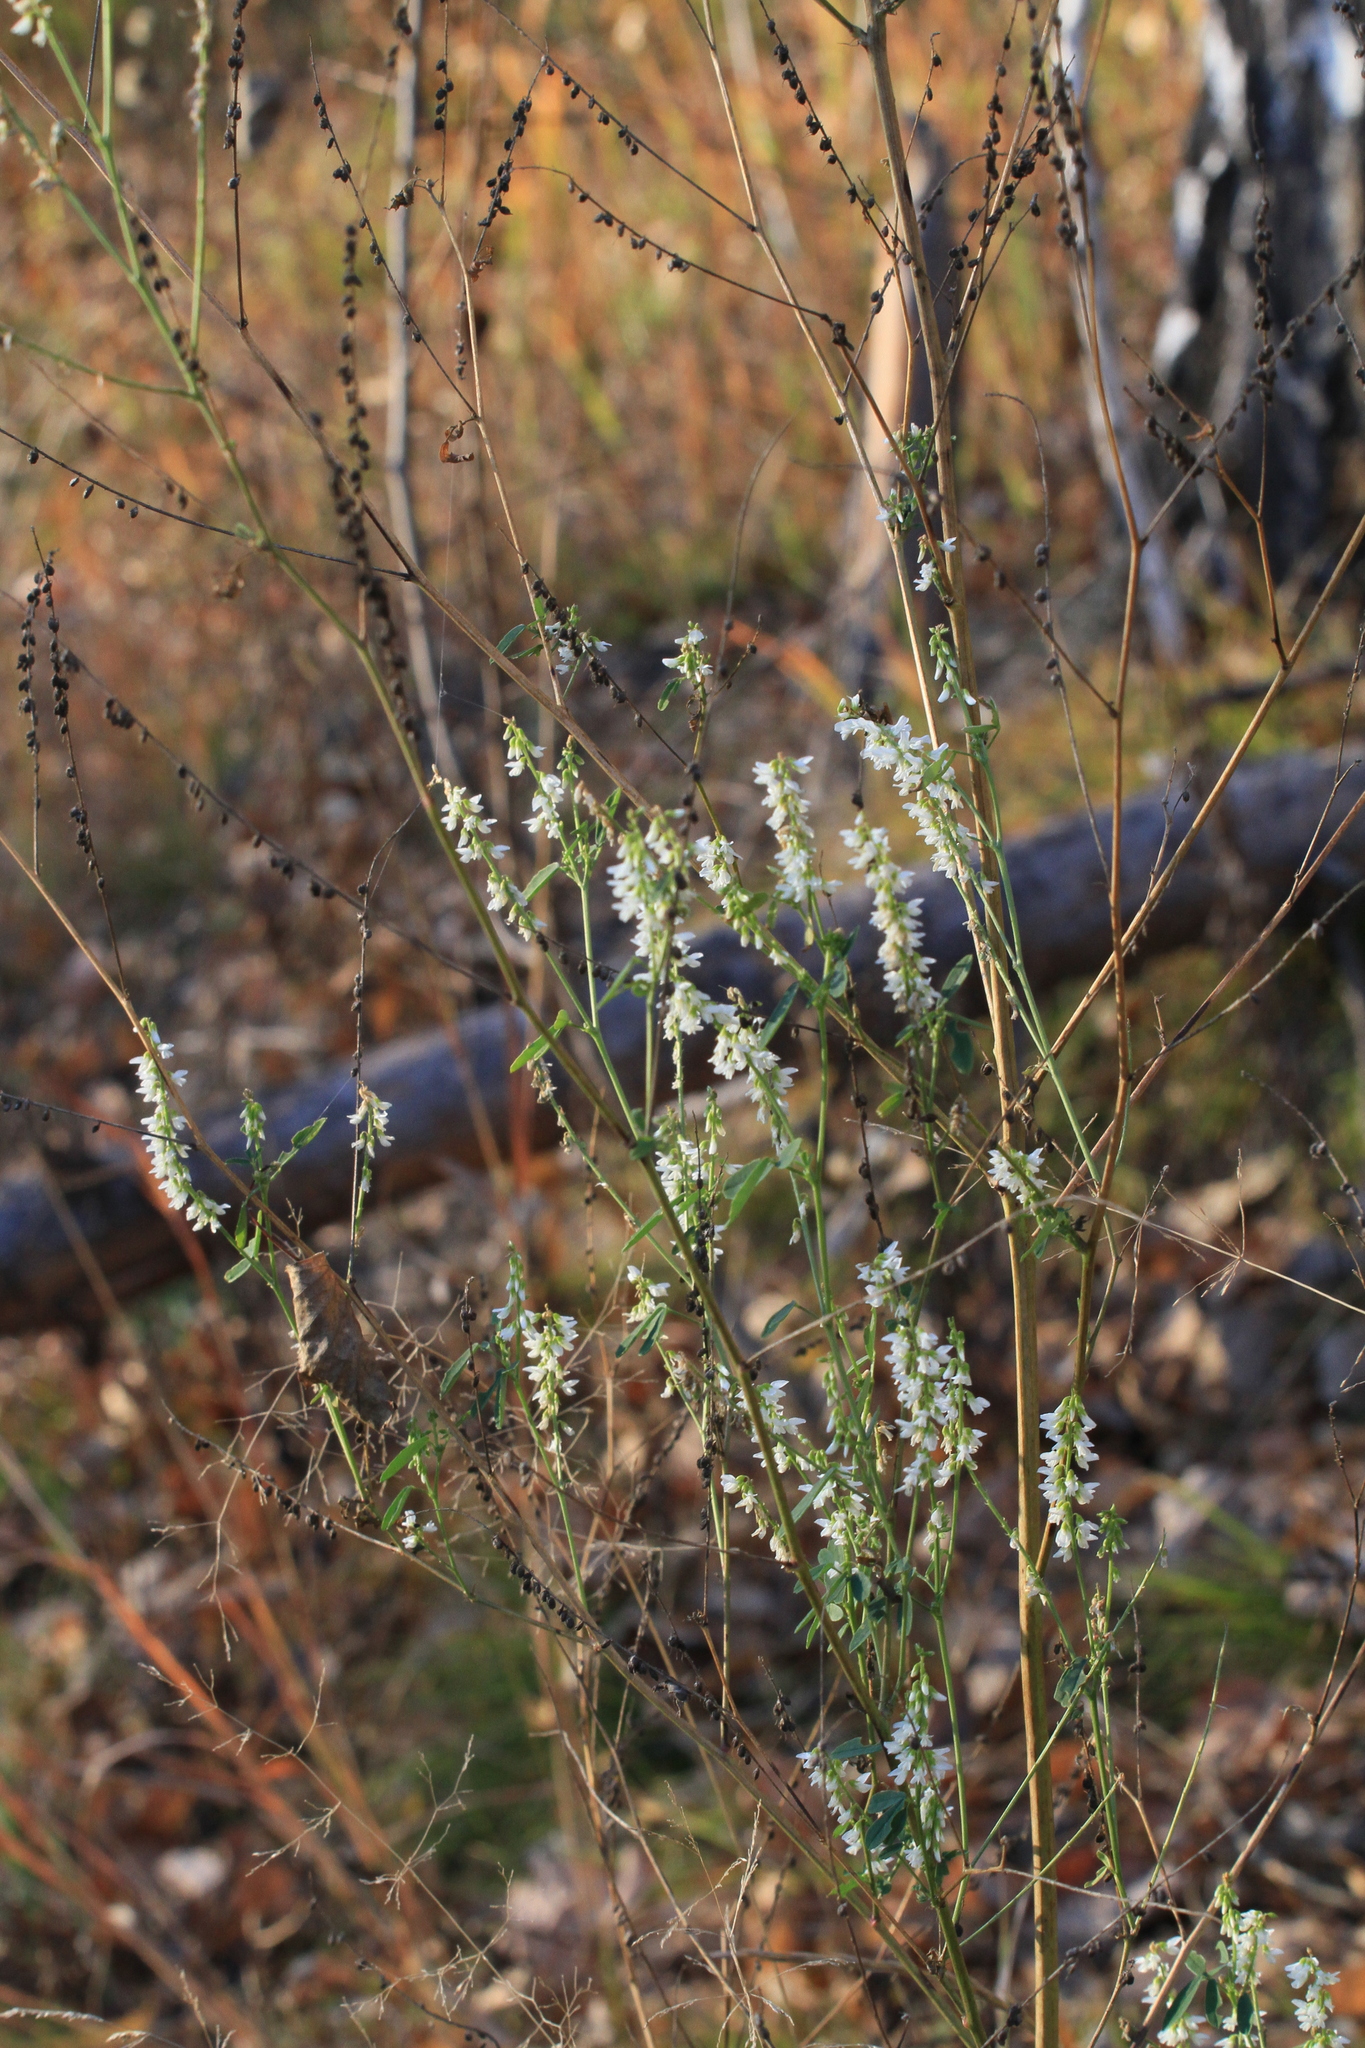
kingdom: Plantae
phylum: Tracheophyta
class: Magnoliopsida
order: Fabales
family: Fabaceae
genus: Melilotus
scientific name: Melilotus albus
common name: White melilot
